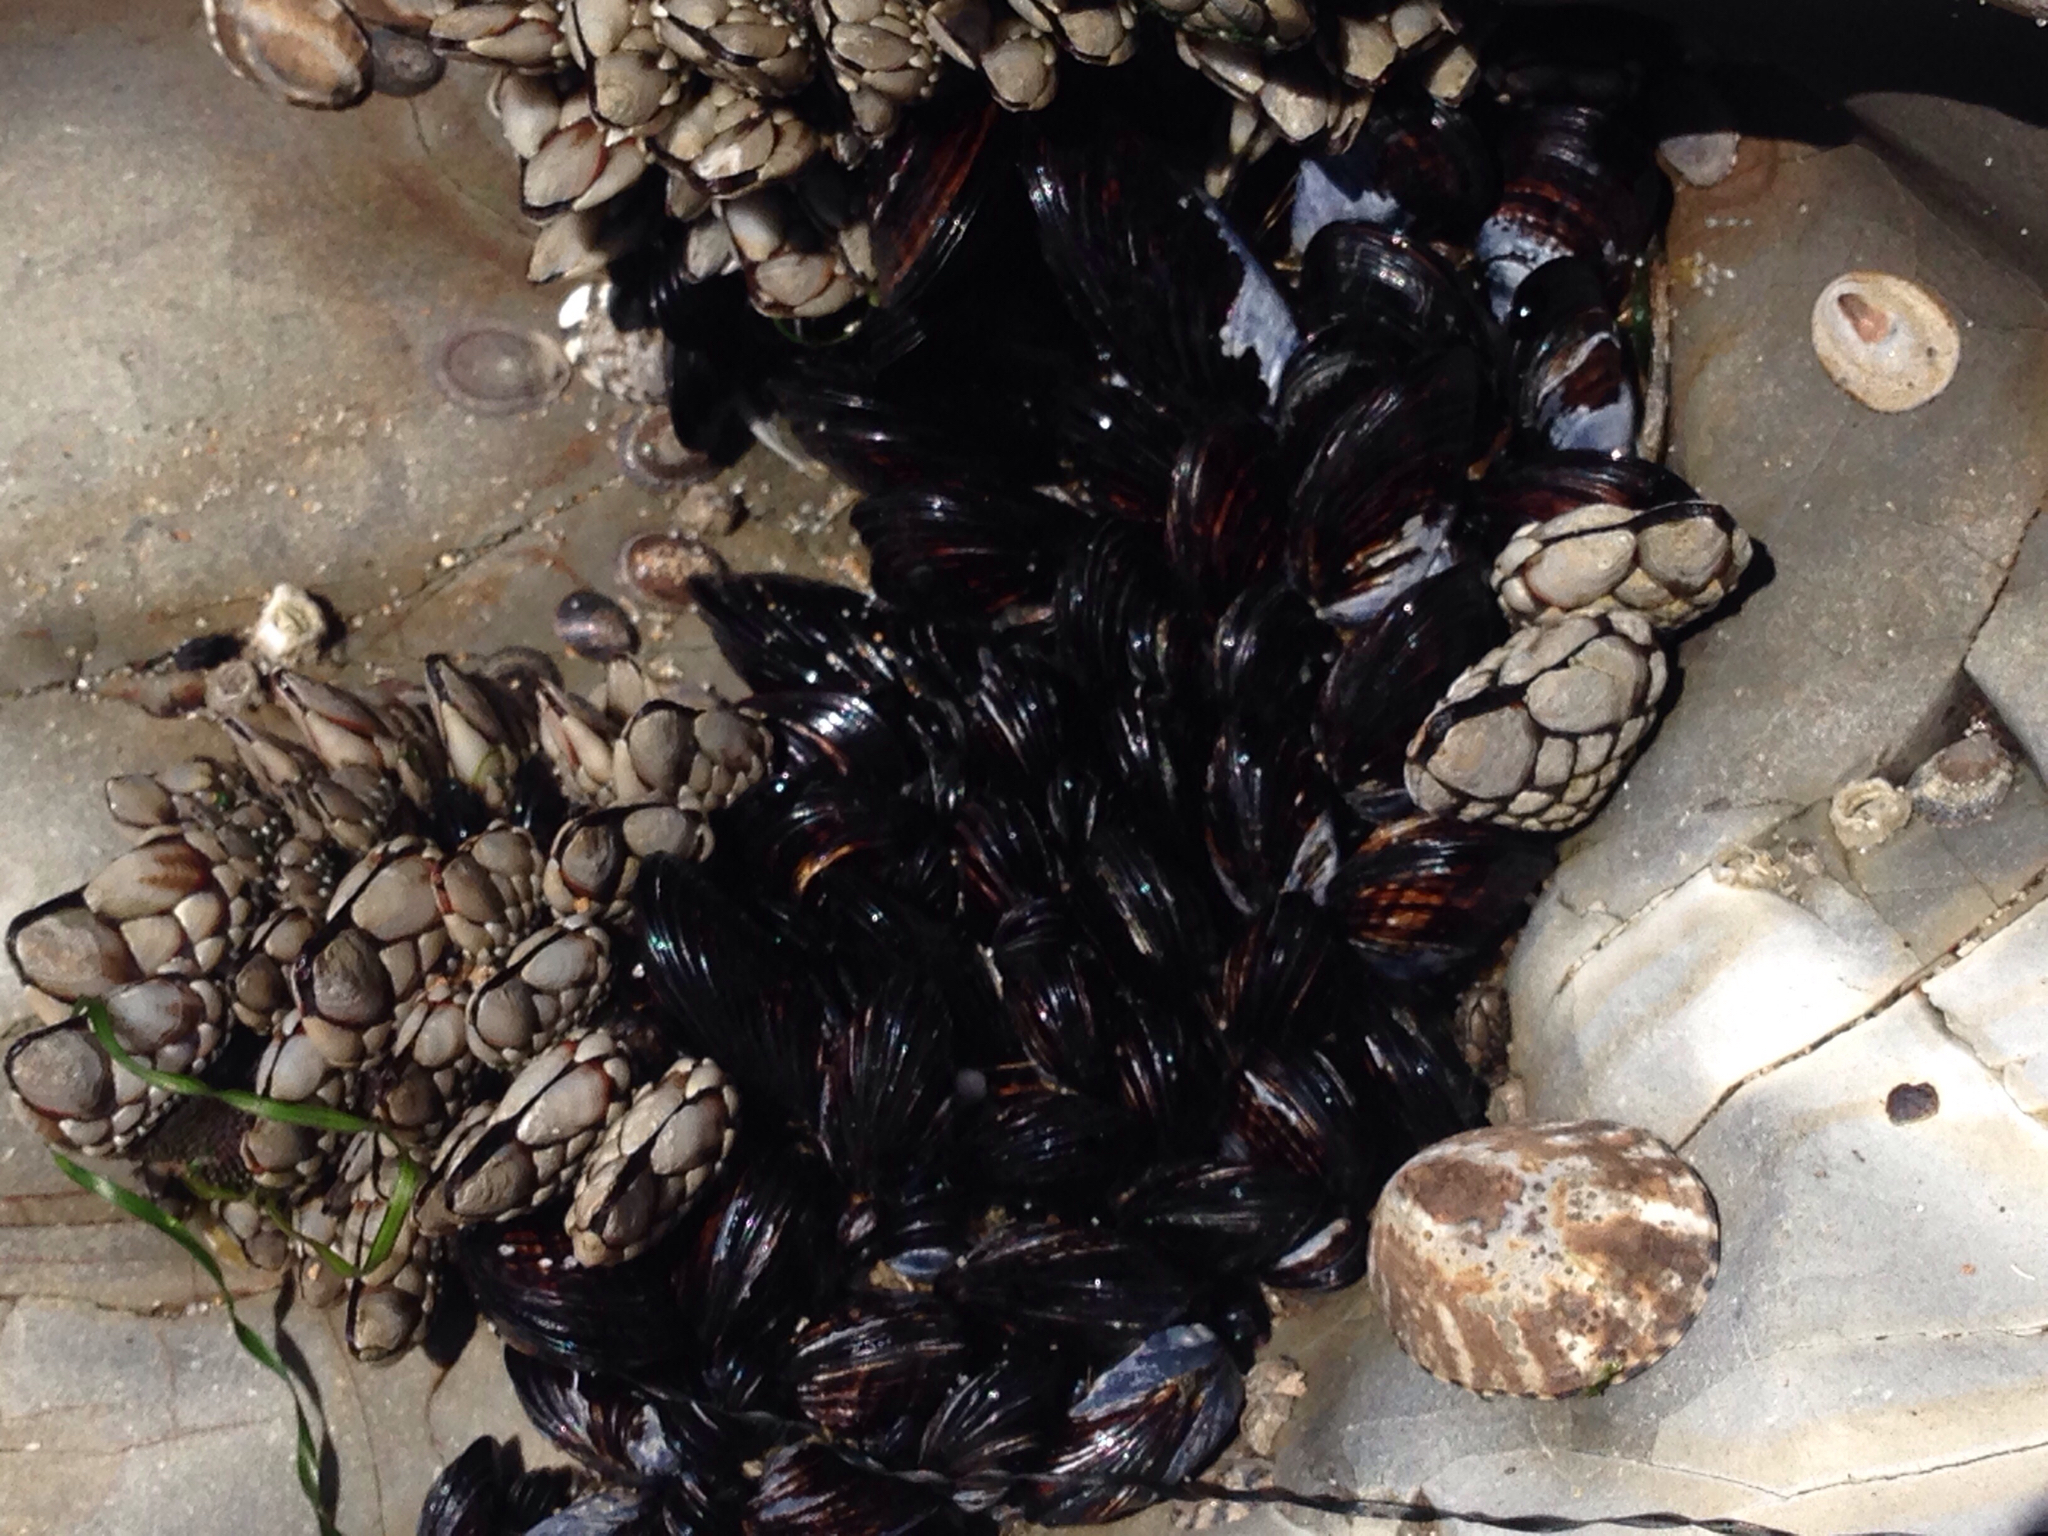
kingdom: Animalia
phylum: Mollusca
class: Bivalvia
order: Mytilida
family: Mytilidae
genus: Mytilus
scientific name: Mytilus californianus
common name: California mussel
